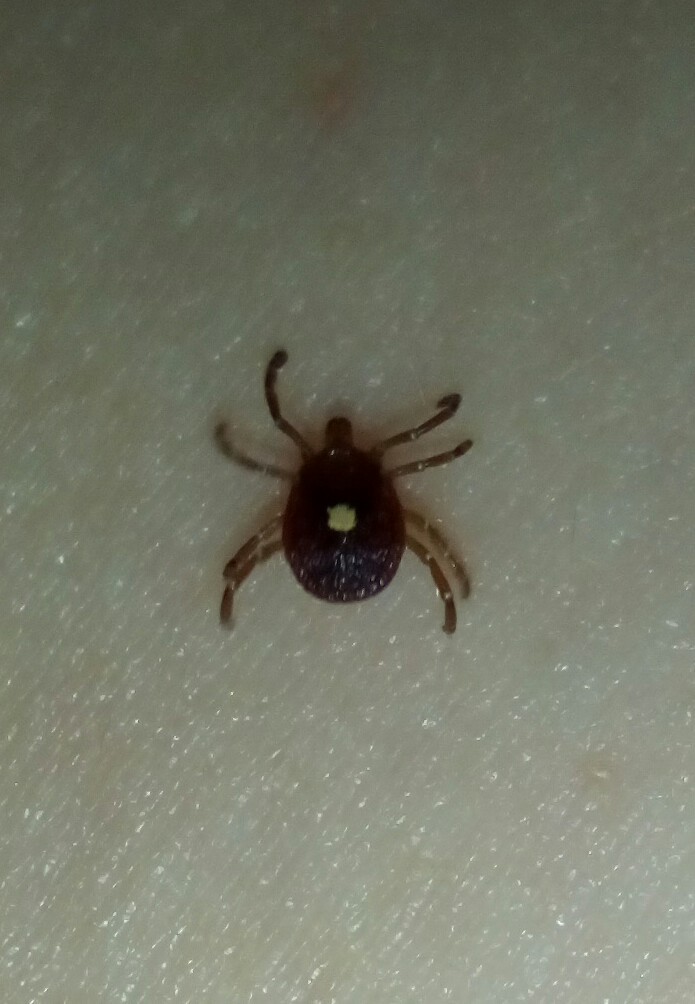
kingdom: Animalia
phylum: Arthropoda
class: Arachnida
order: Ixodida
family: Ixodidae
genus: Amblyomma
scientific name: Amblyomma americanum
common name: Lone star tick
